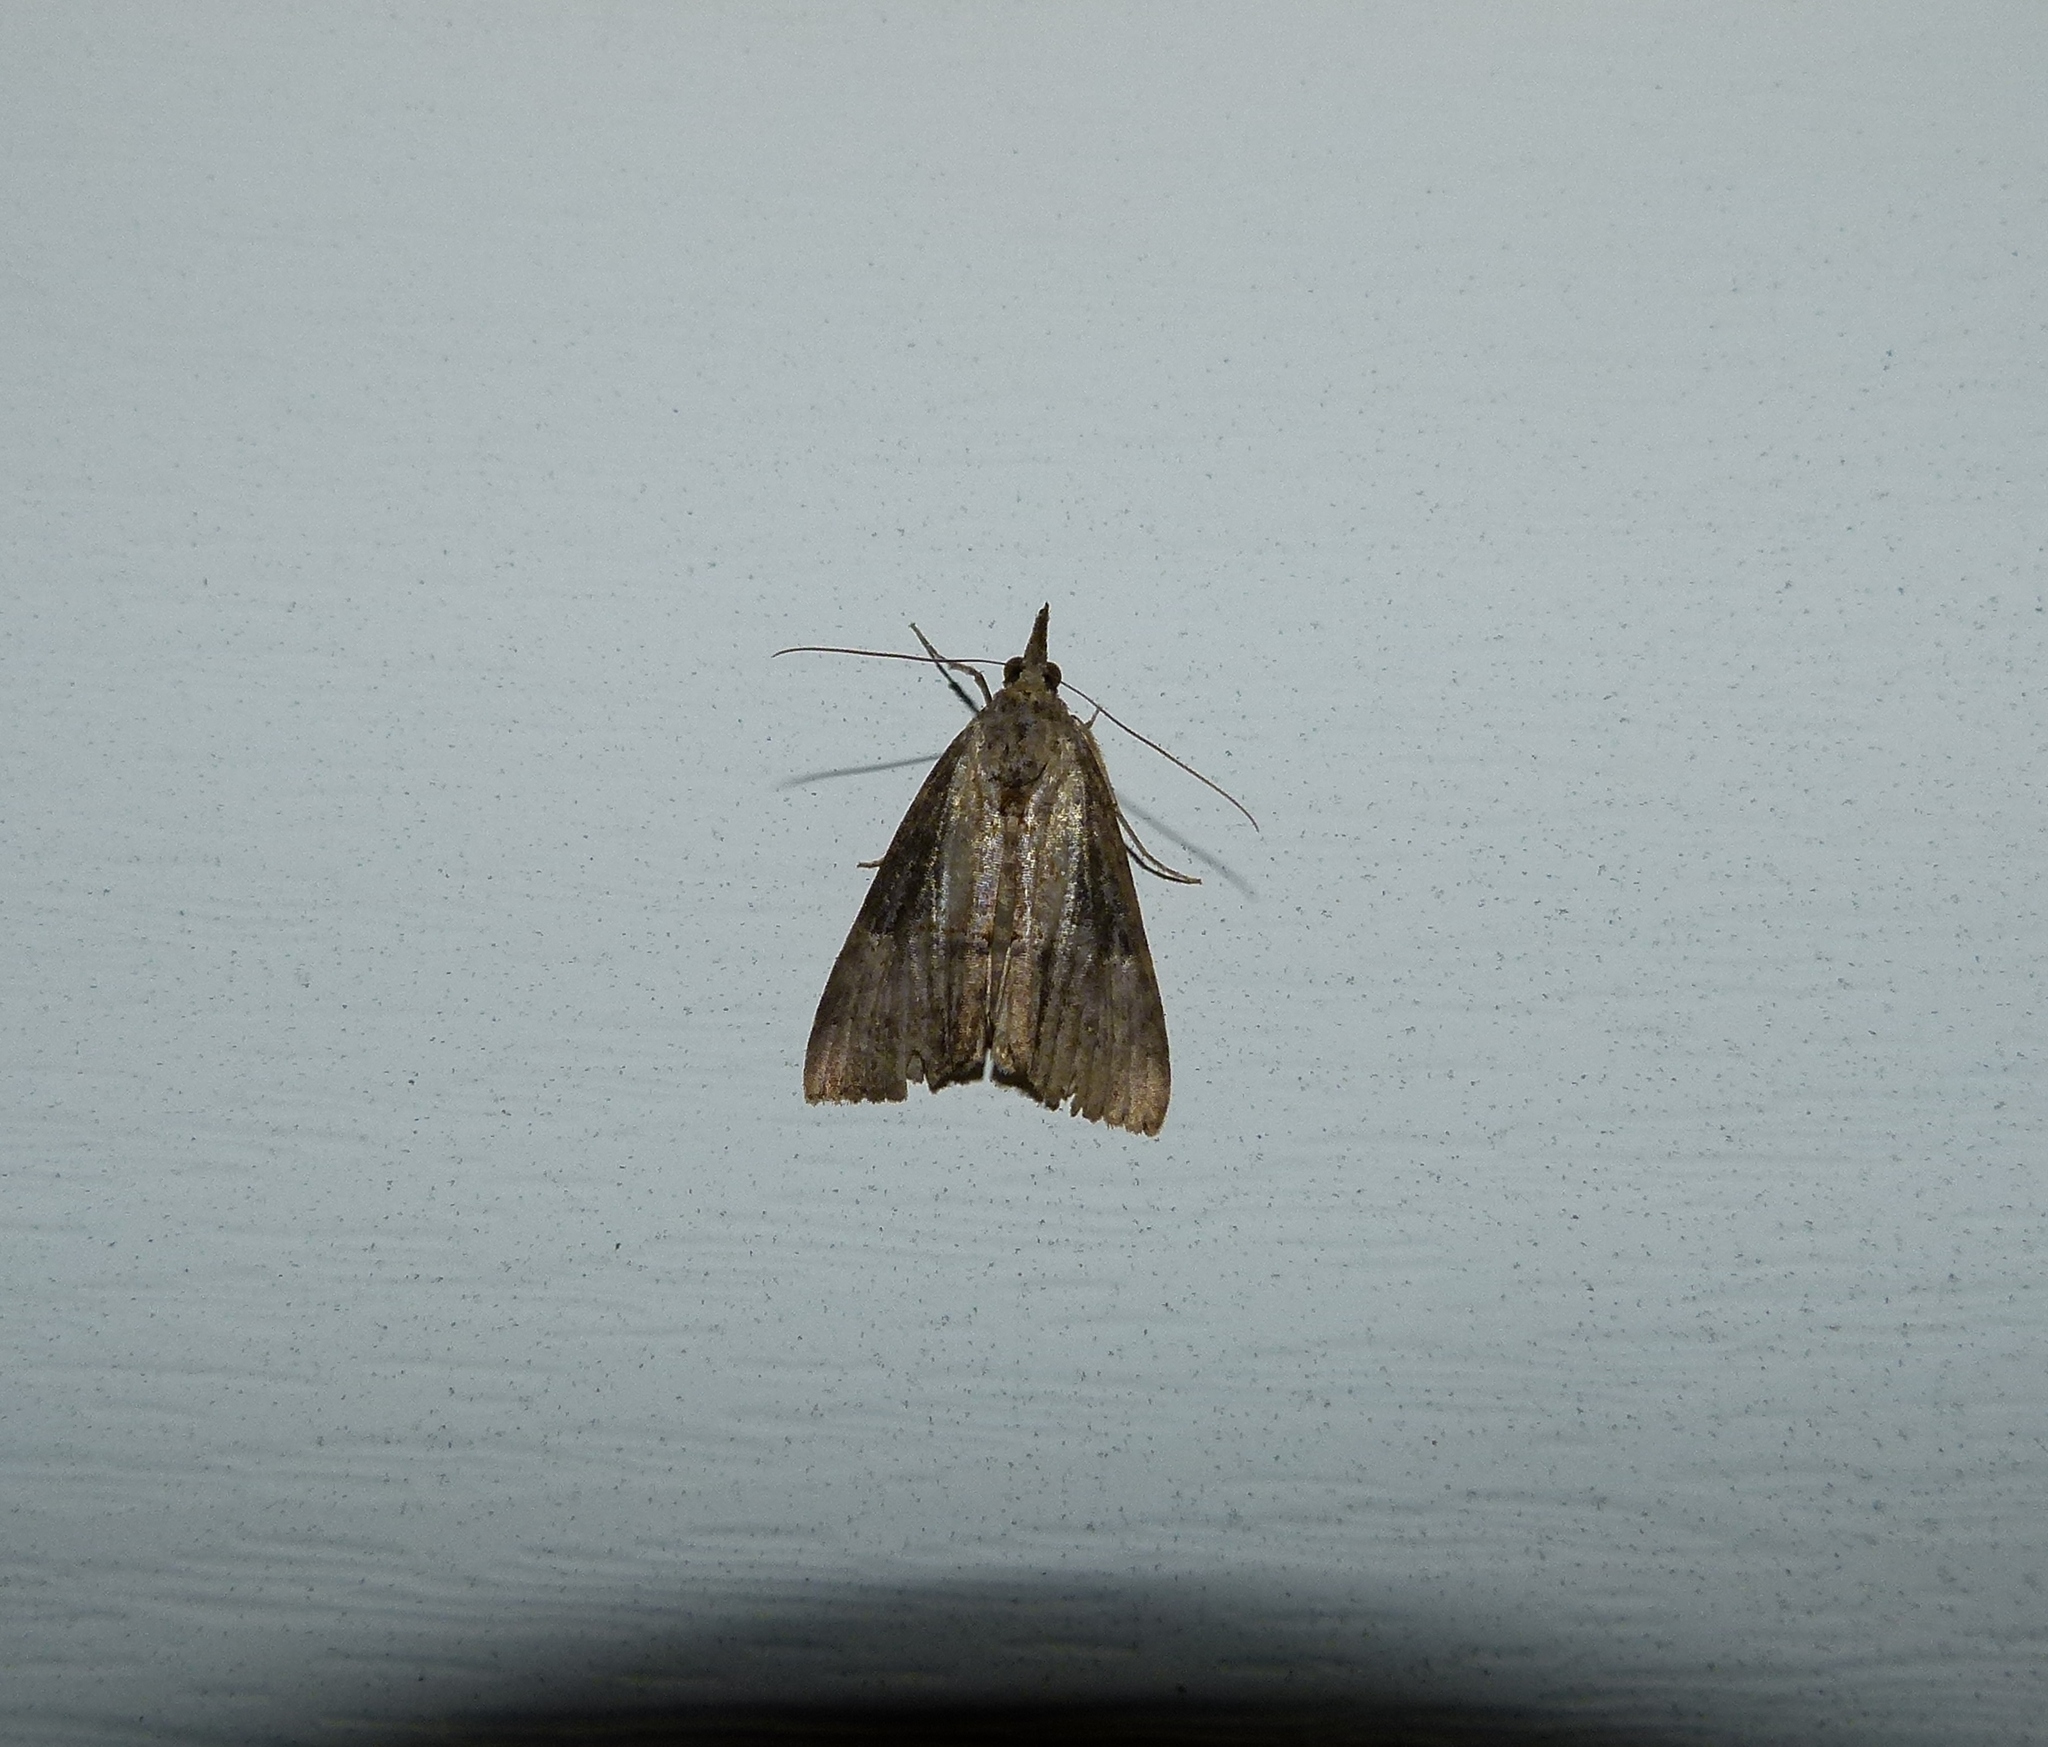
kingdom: Animalia
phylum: Arthropoda
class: Insecta
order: Lepidoptera
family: Erebidae
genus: Hypena
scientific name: Hypena scabra
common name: Green cloverworm
